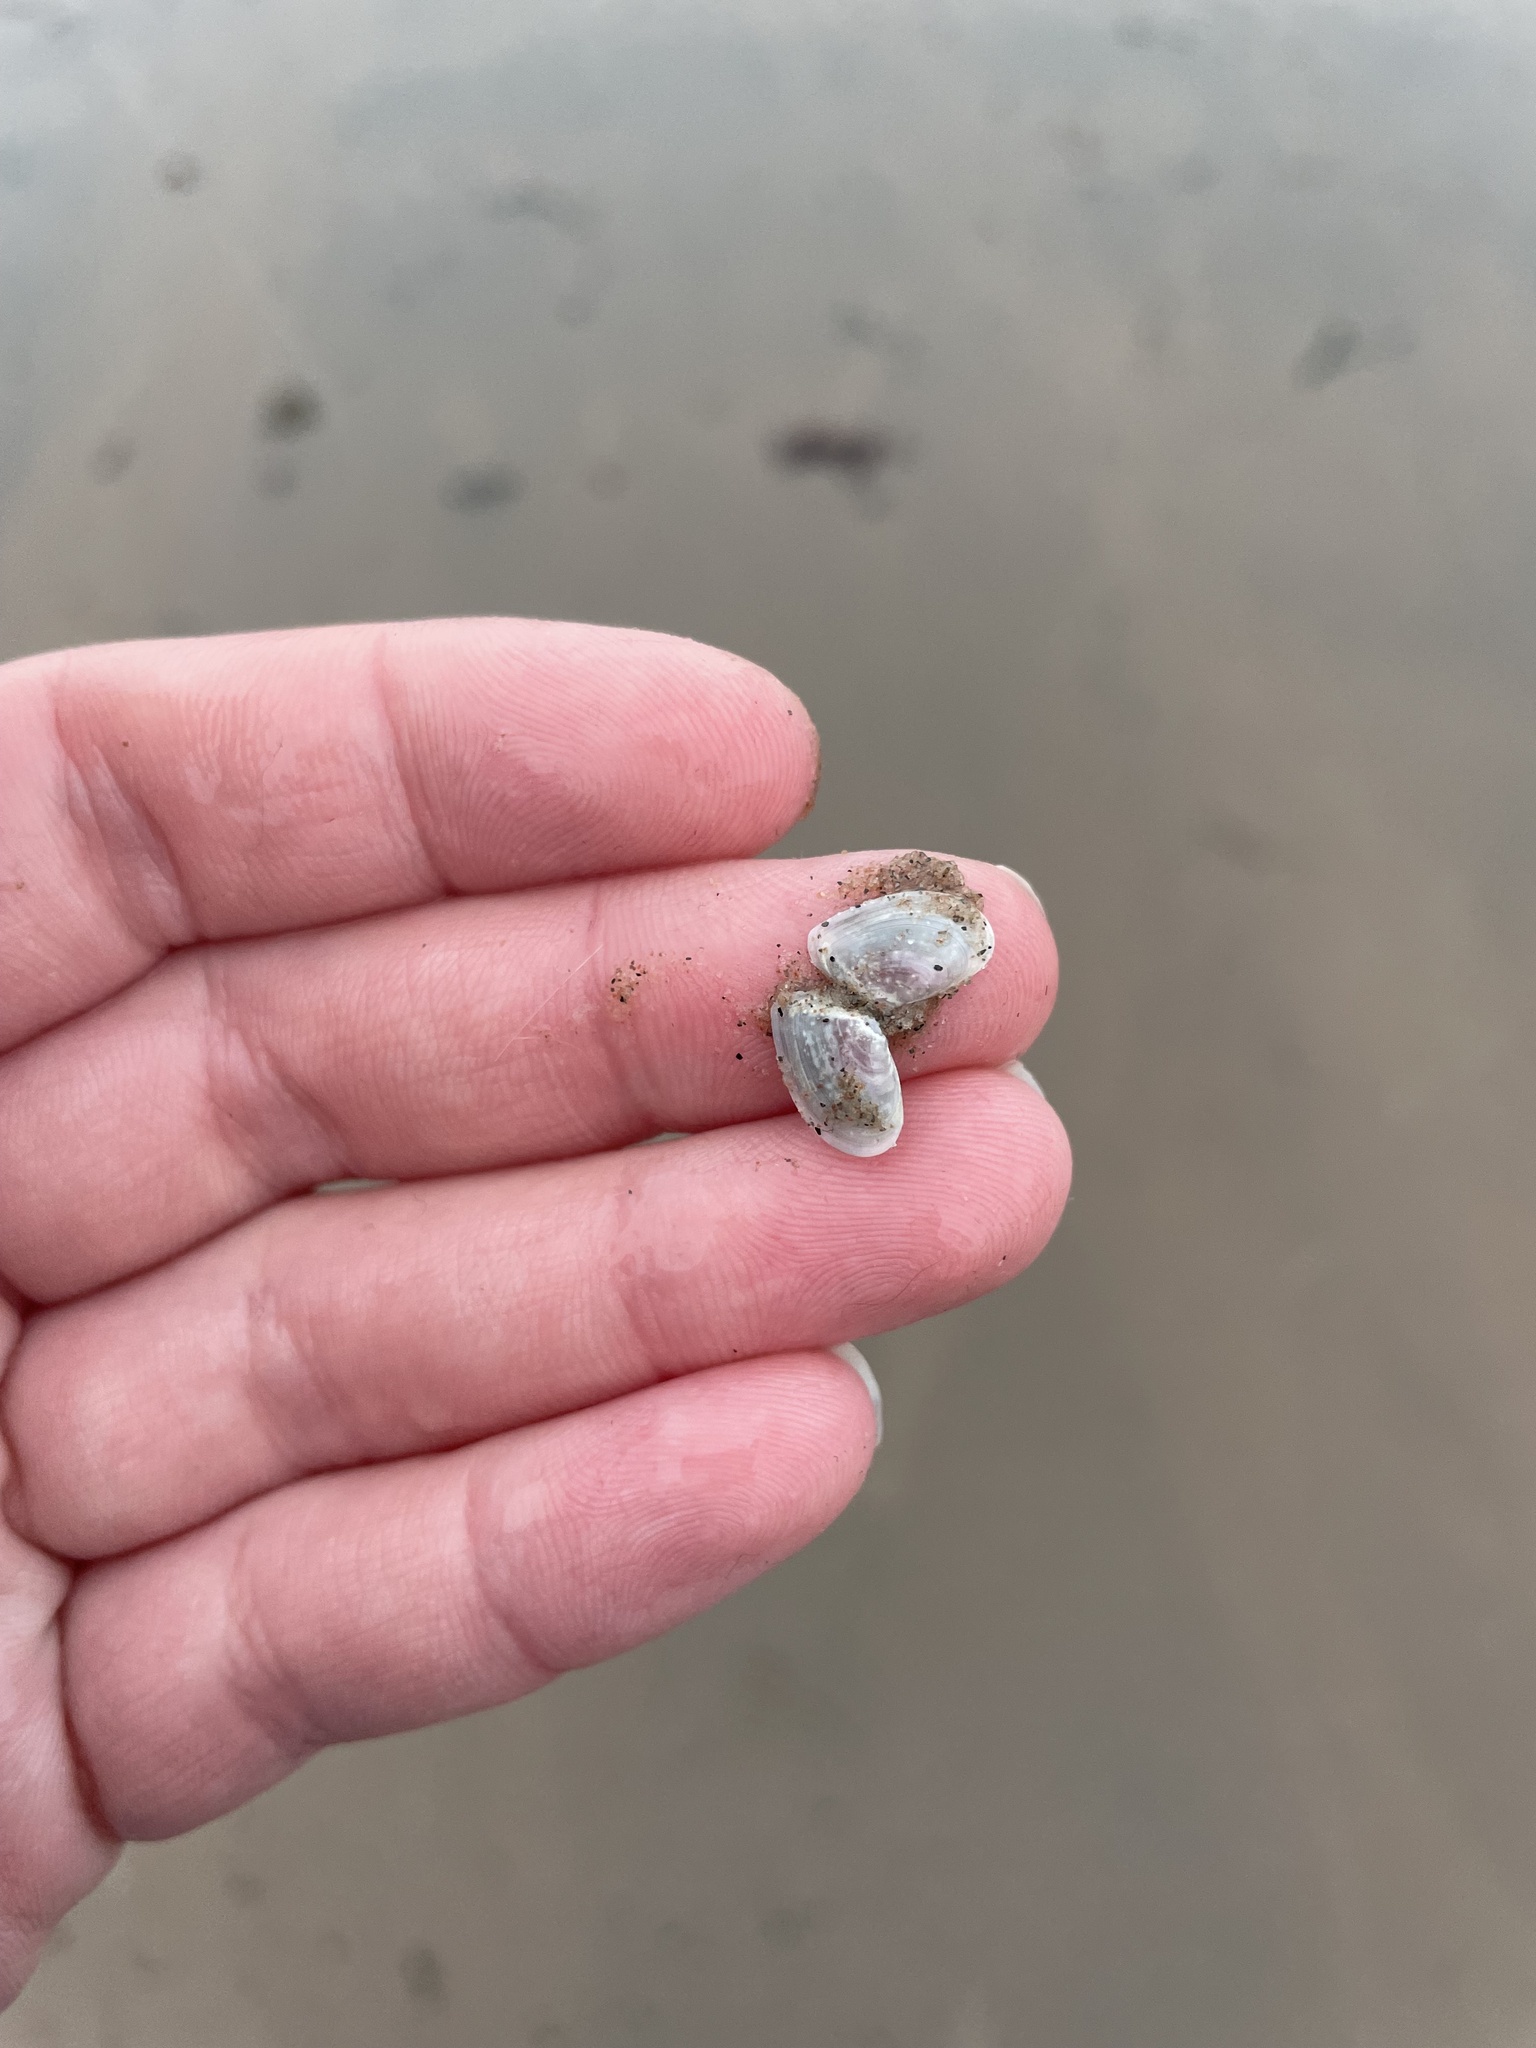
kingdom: Animalia
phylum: Mollusca
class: Bivalvia
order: Cardiida
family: Tellinidae
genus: Ameritella
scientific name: Ameritella agilis
